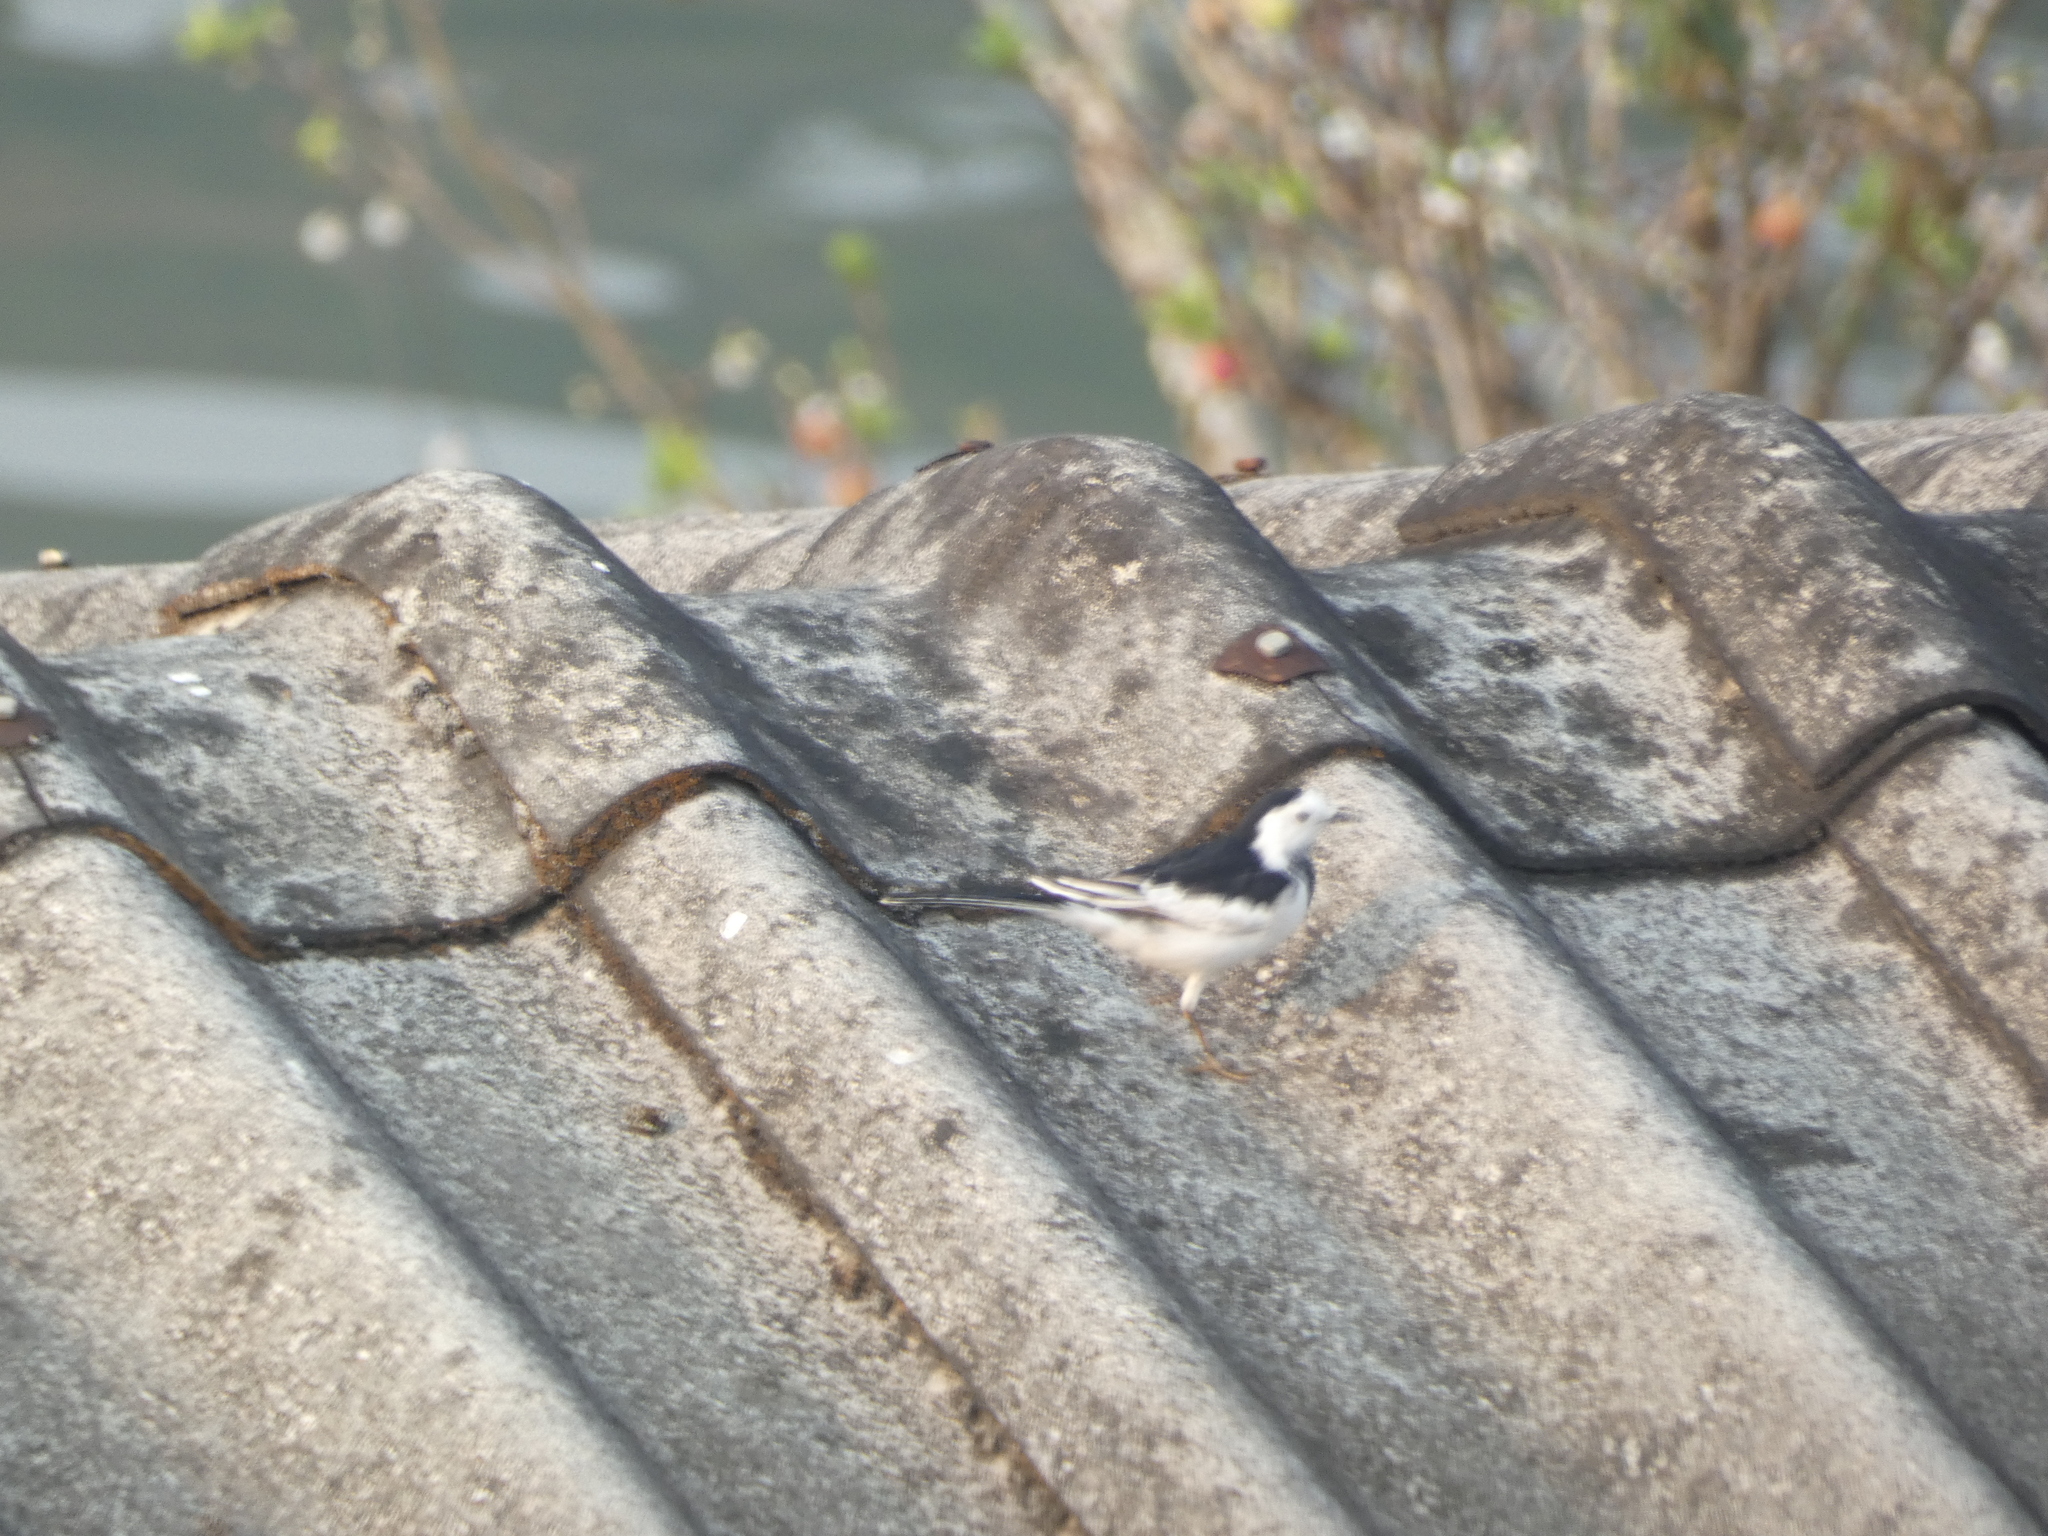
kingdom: Animalia
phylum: Chordata
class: Aves
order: Passeriformes
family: Motacillidae
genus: Motacilla
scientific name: Motacilla alba
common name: White wagtail
